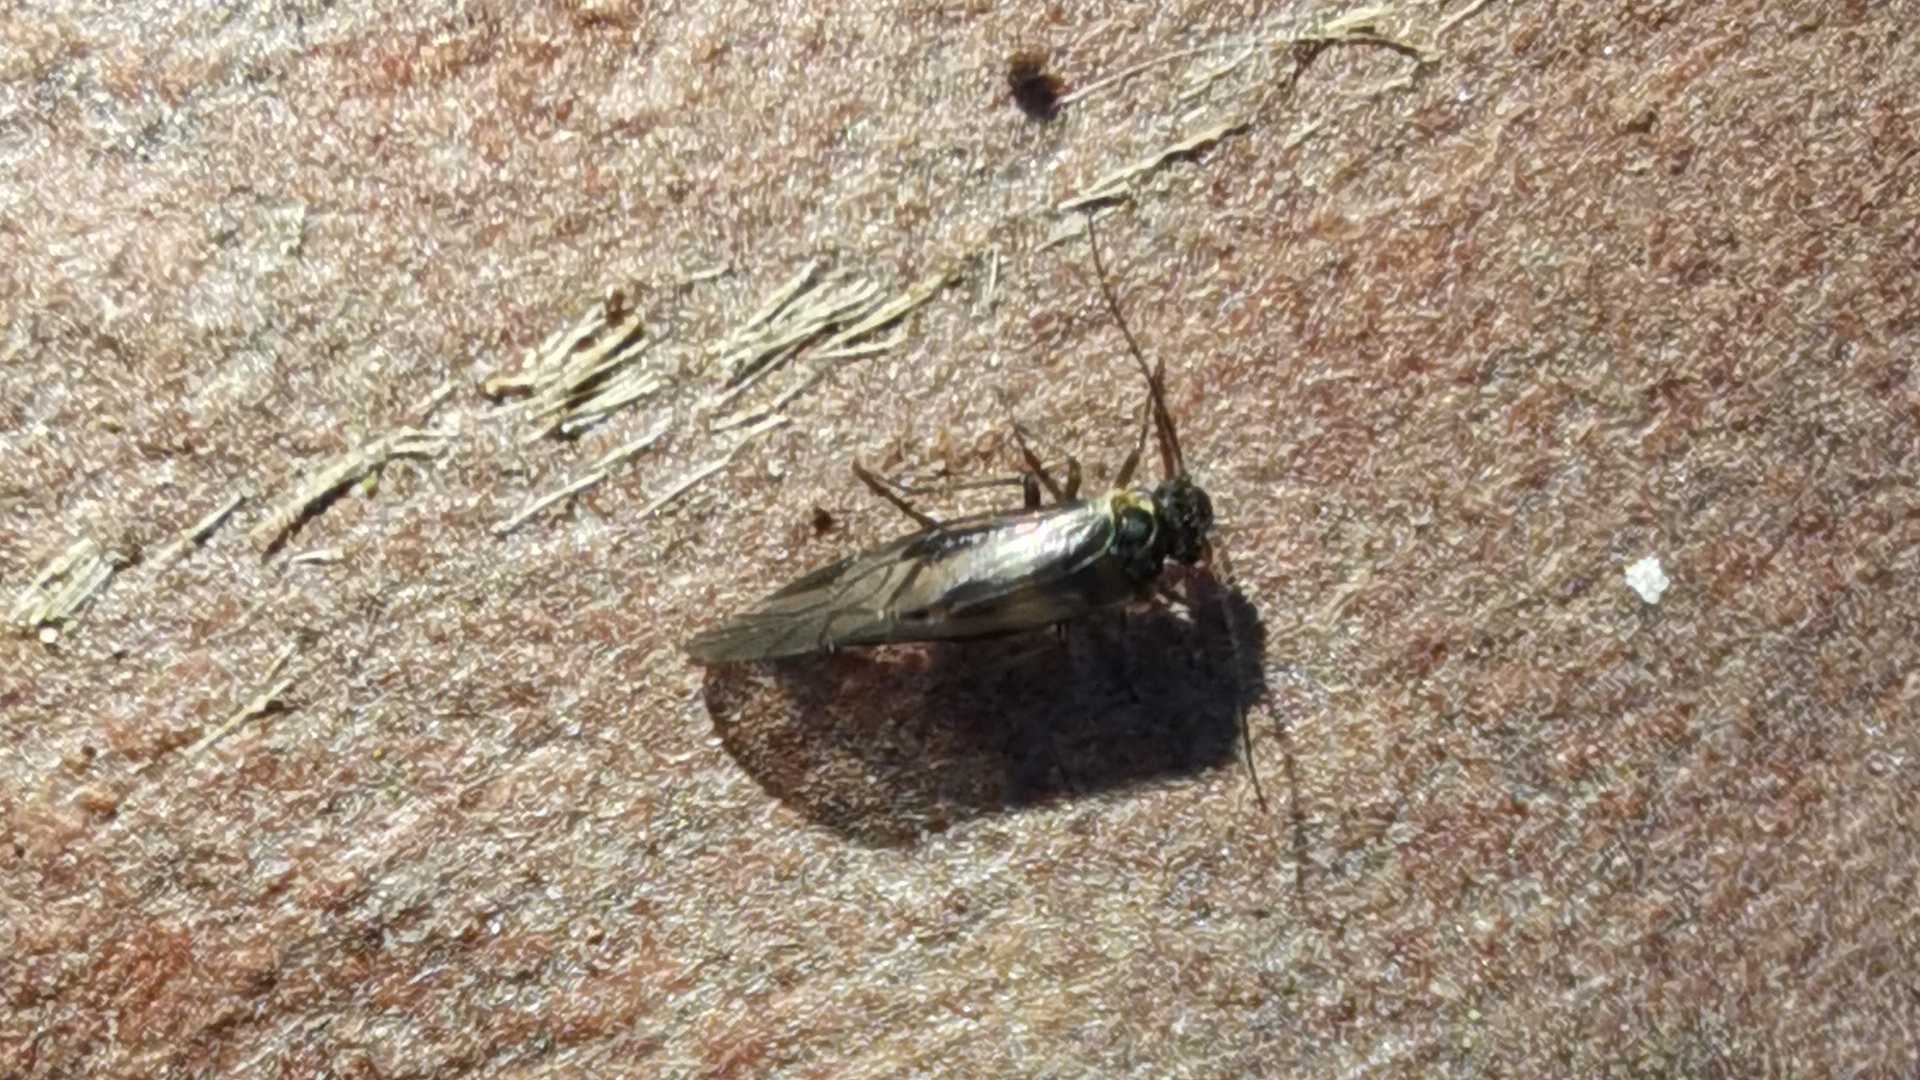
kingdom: Animalia
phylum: Arthropoda
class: Insecta
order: Psocodea
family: Elipsocidae
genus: Elipsocus
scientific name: Elipsocus hyalinus
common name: Bark lice
